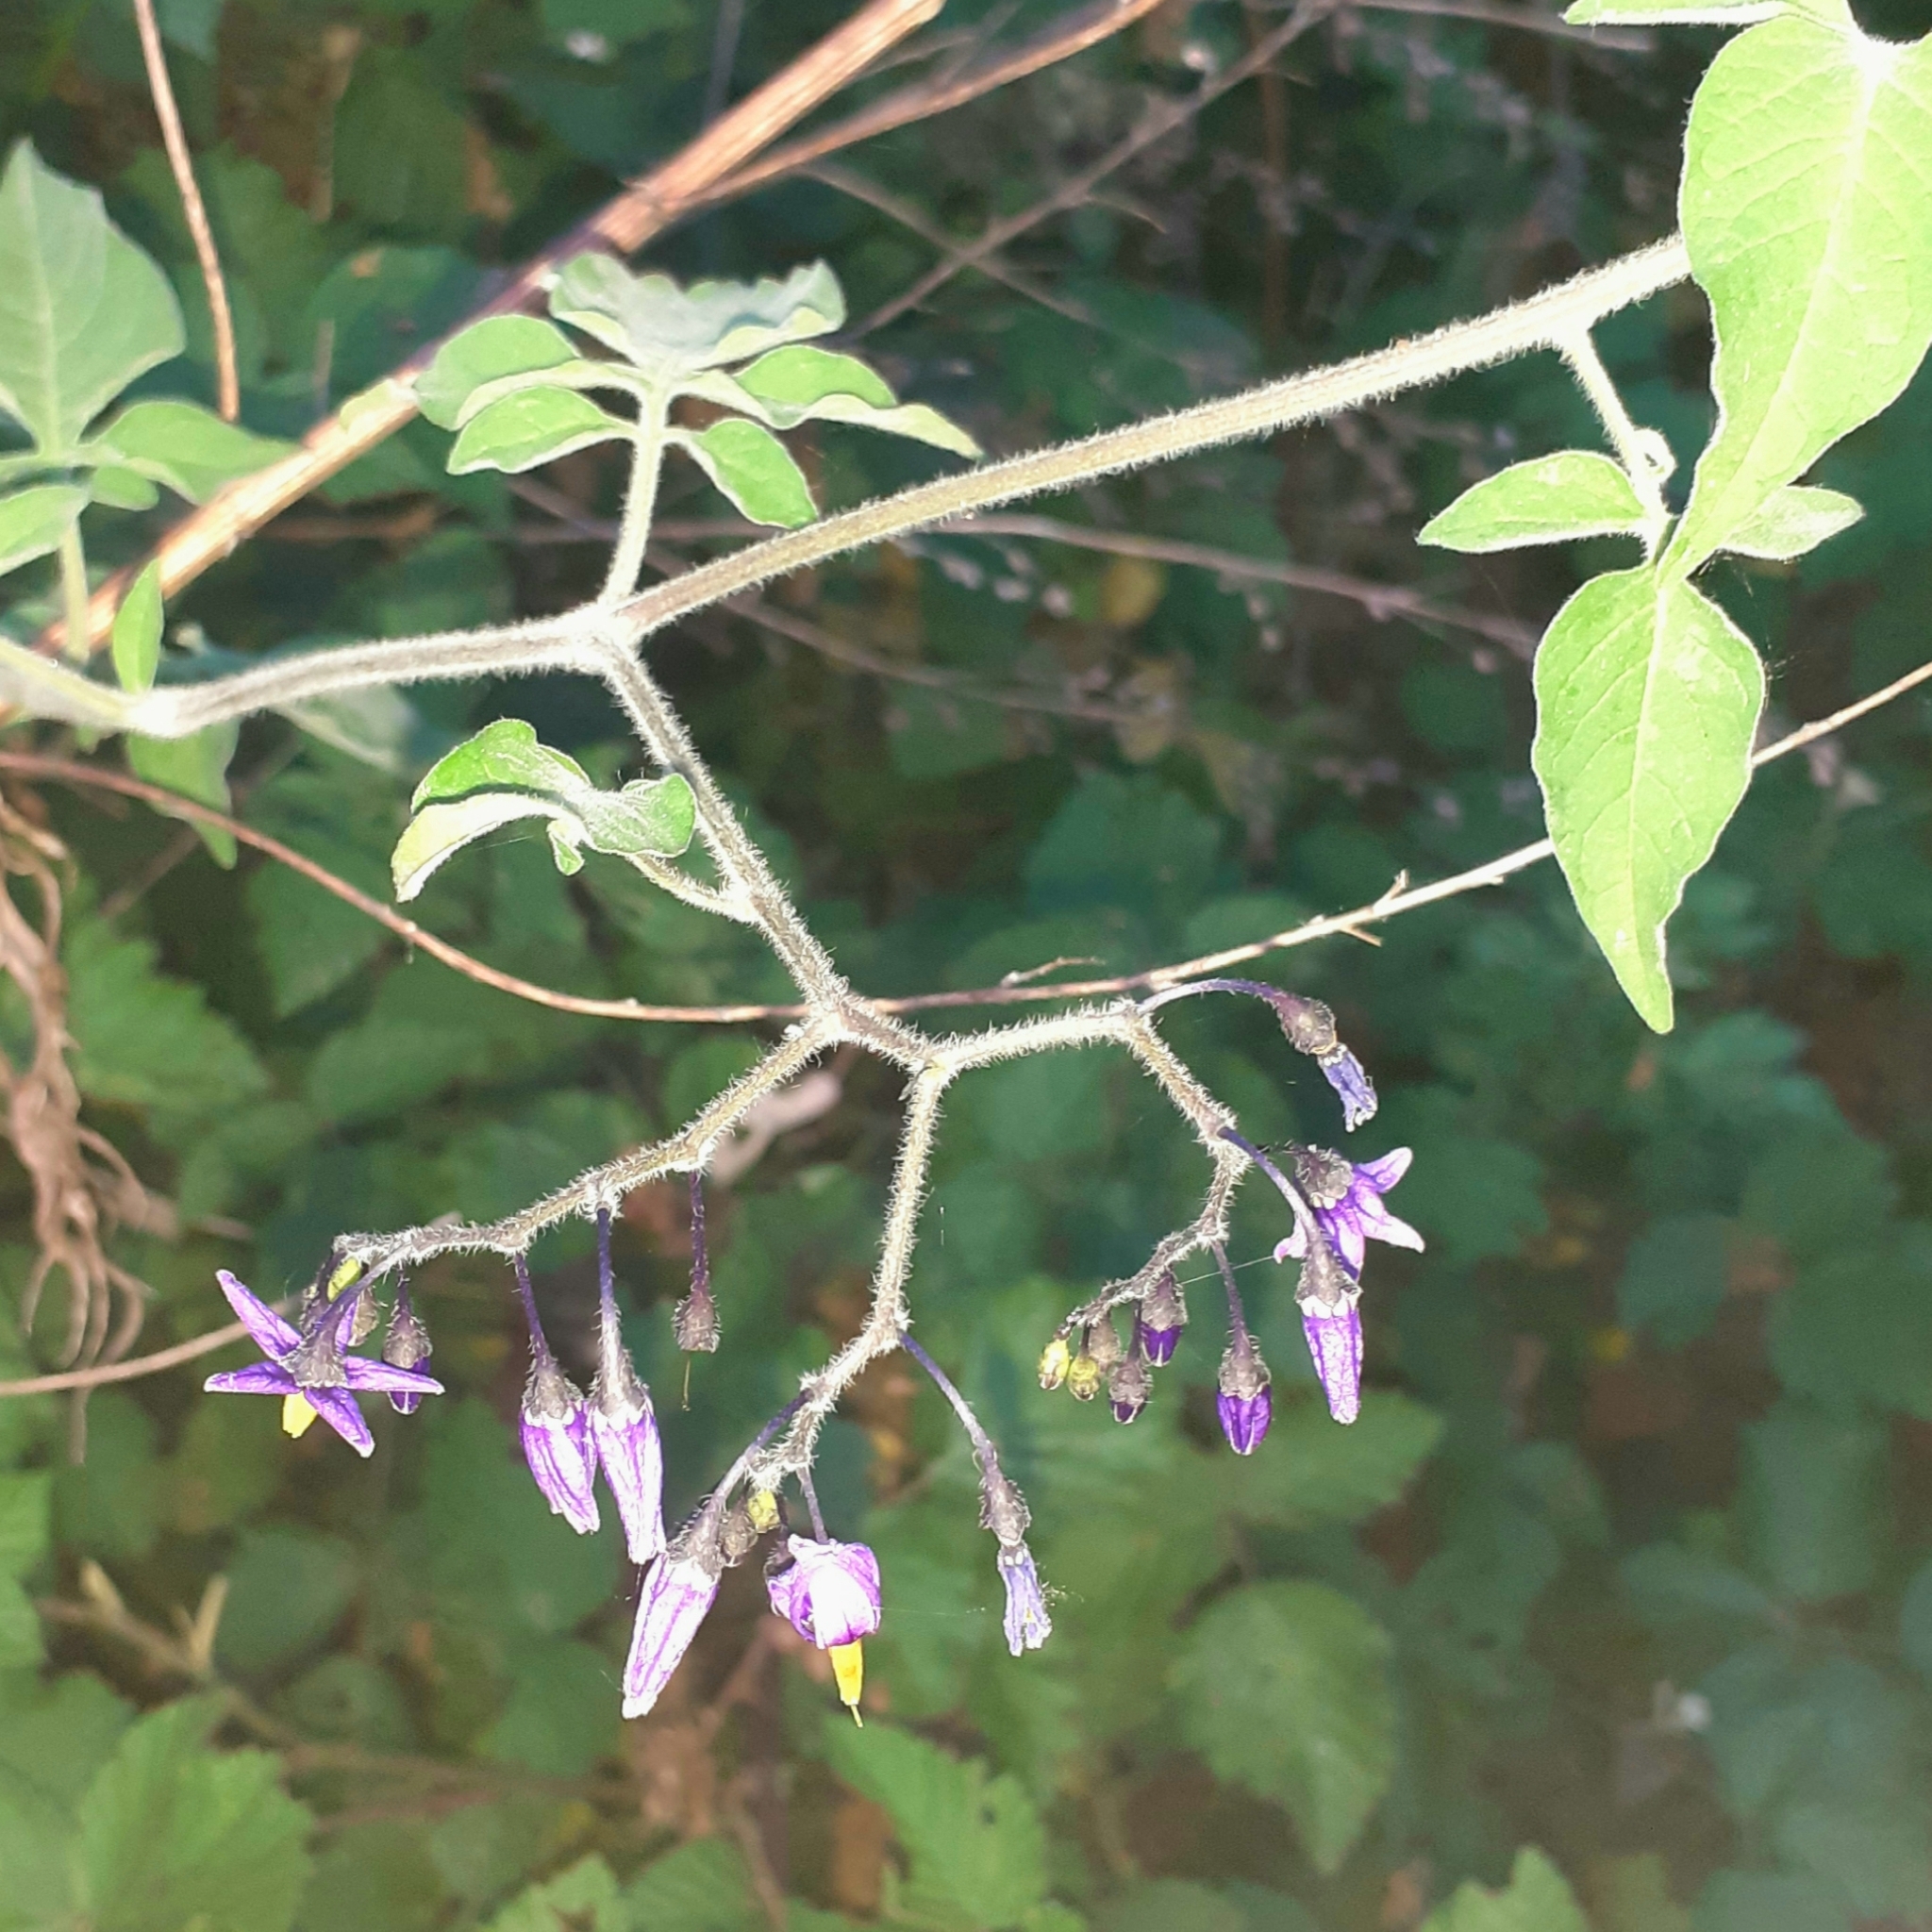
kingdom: Plantae
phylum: Tracheophyta
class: Magnoliopsida
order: Solanales
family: Solanaceae
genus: Solanum
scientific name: Solanum dulcamara
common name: Climbing nightshade
